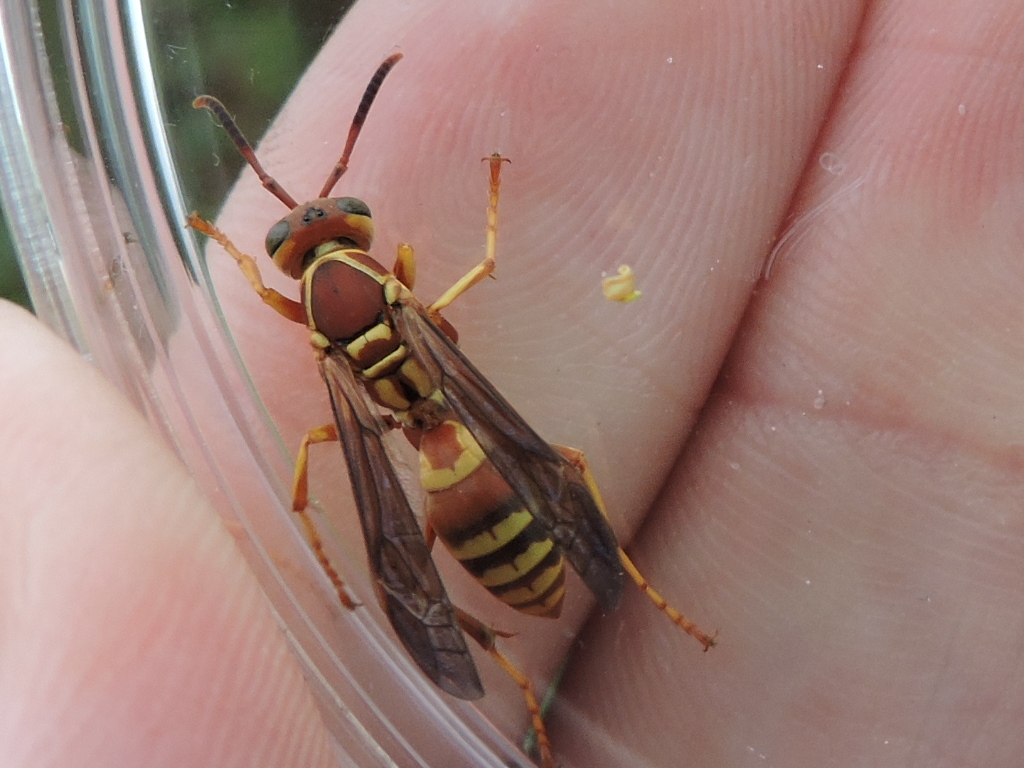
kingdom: Animalia
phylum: Arthropoda
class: Insecta
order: Hymenoptera
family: Eumenidae
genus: Polistes
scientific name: Polistes dorsalis
